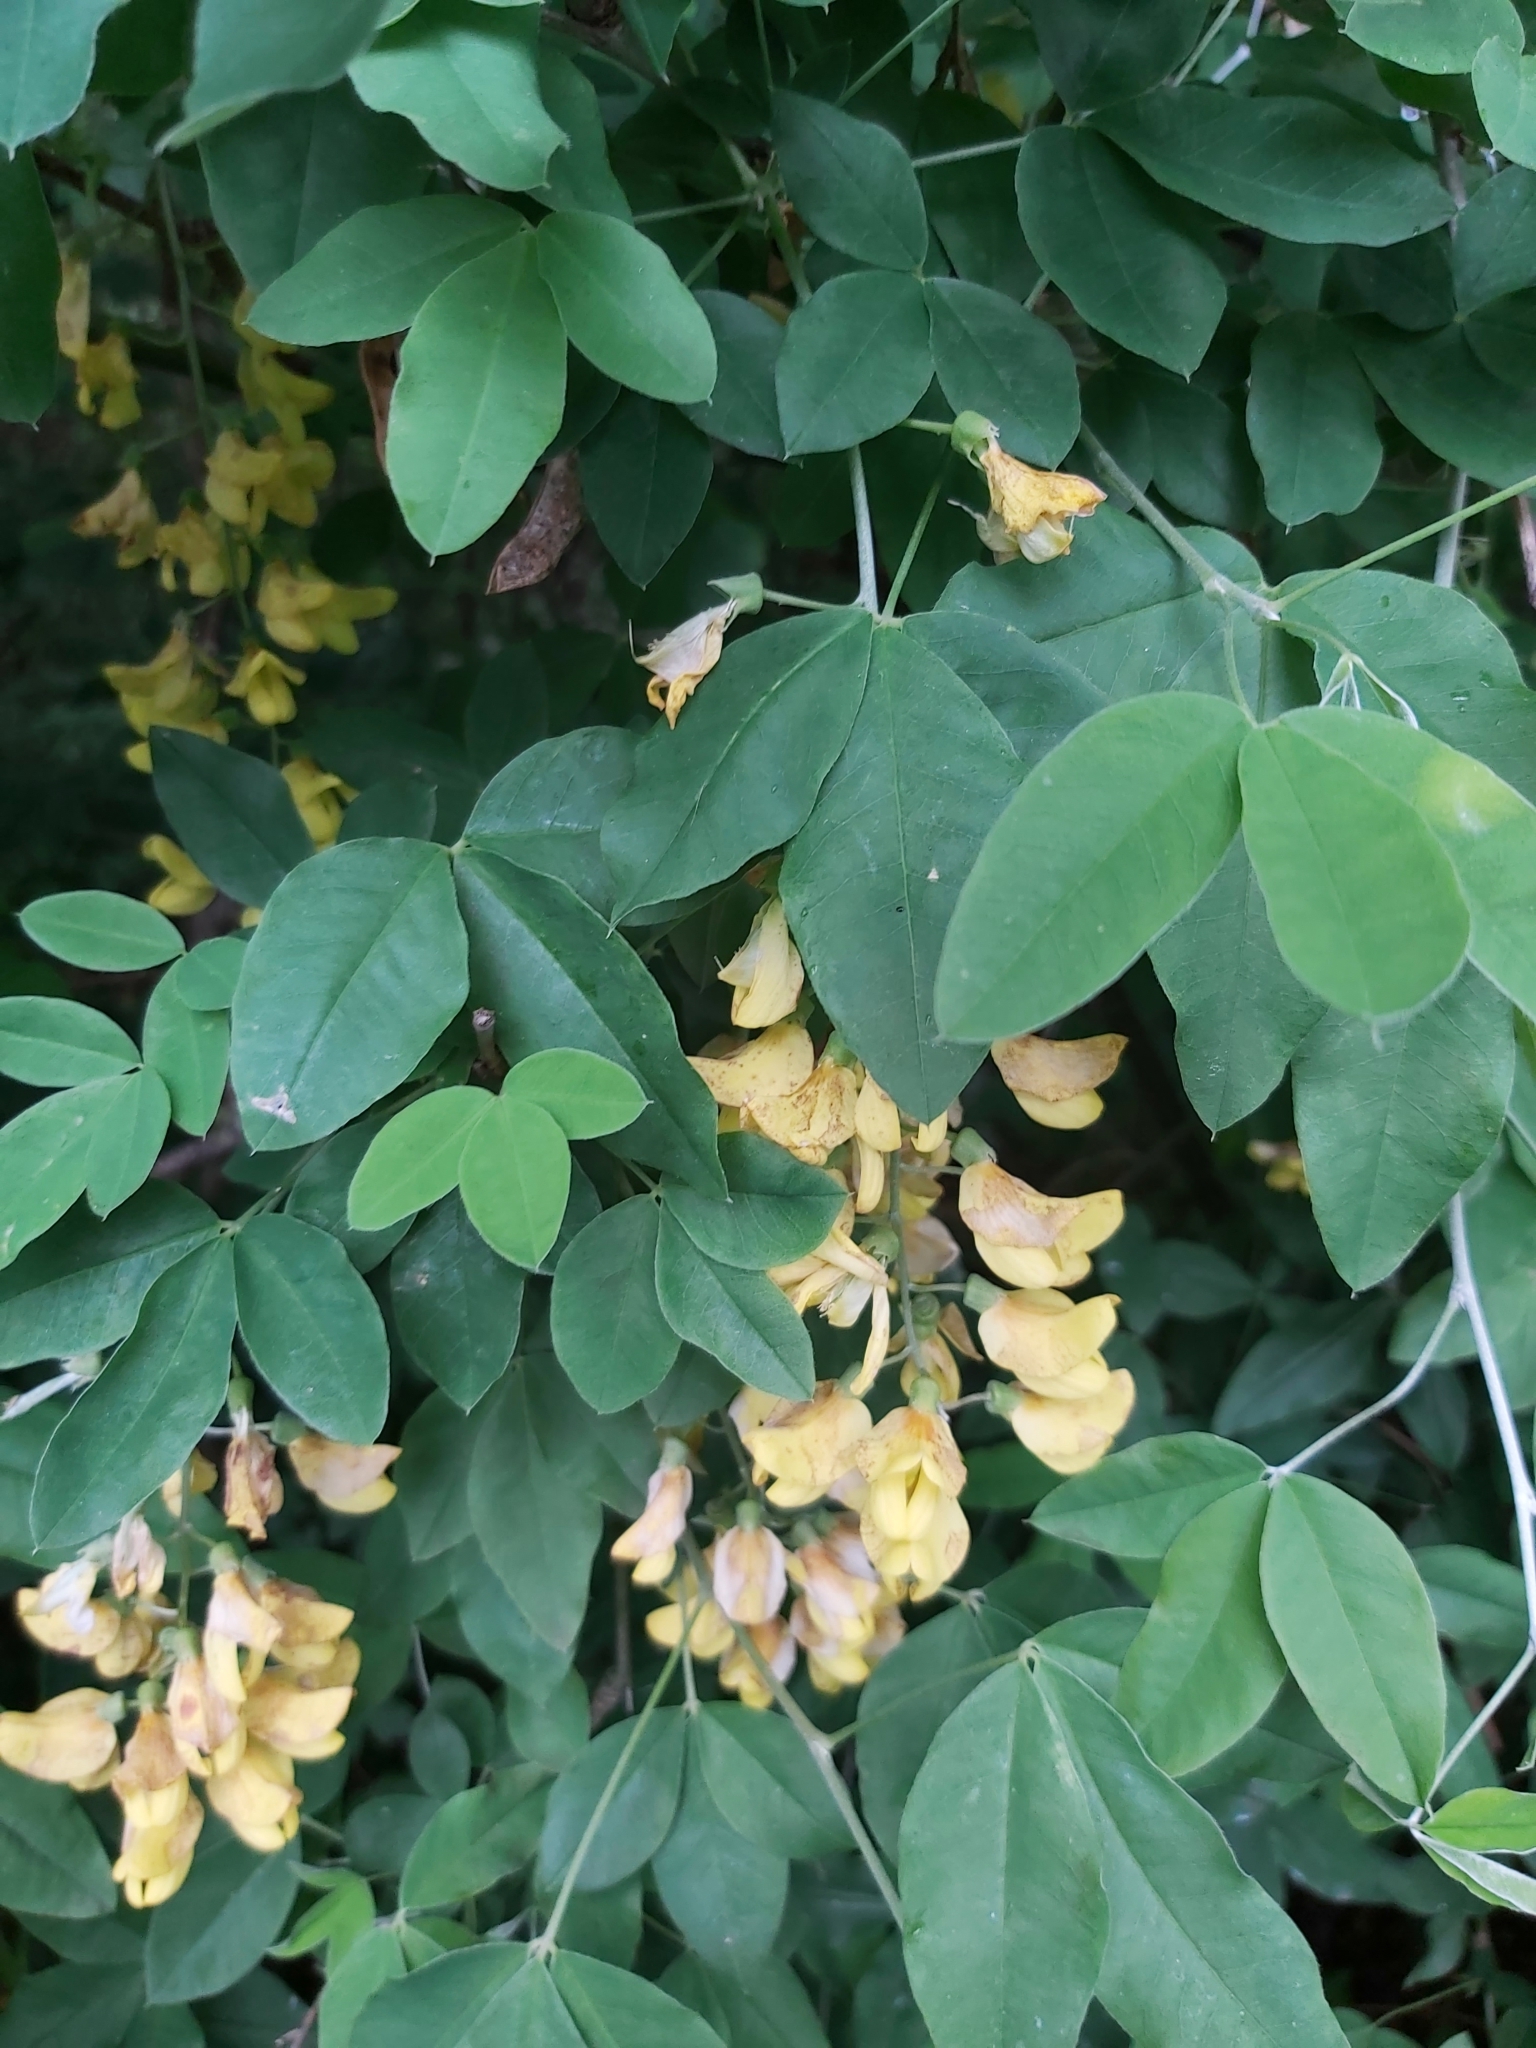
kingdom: Plantae
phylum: Tracheophyta
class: Magnoliopsida
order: Fabales
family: Fabaceae
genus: Laburnum
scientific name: Laburnum anagyroides
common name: Laburnum
